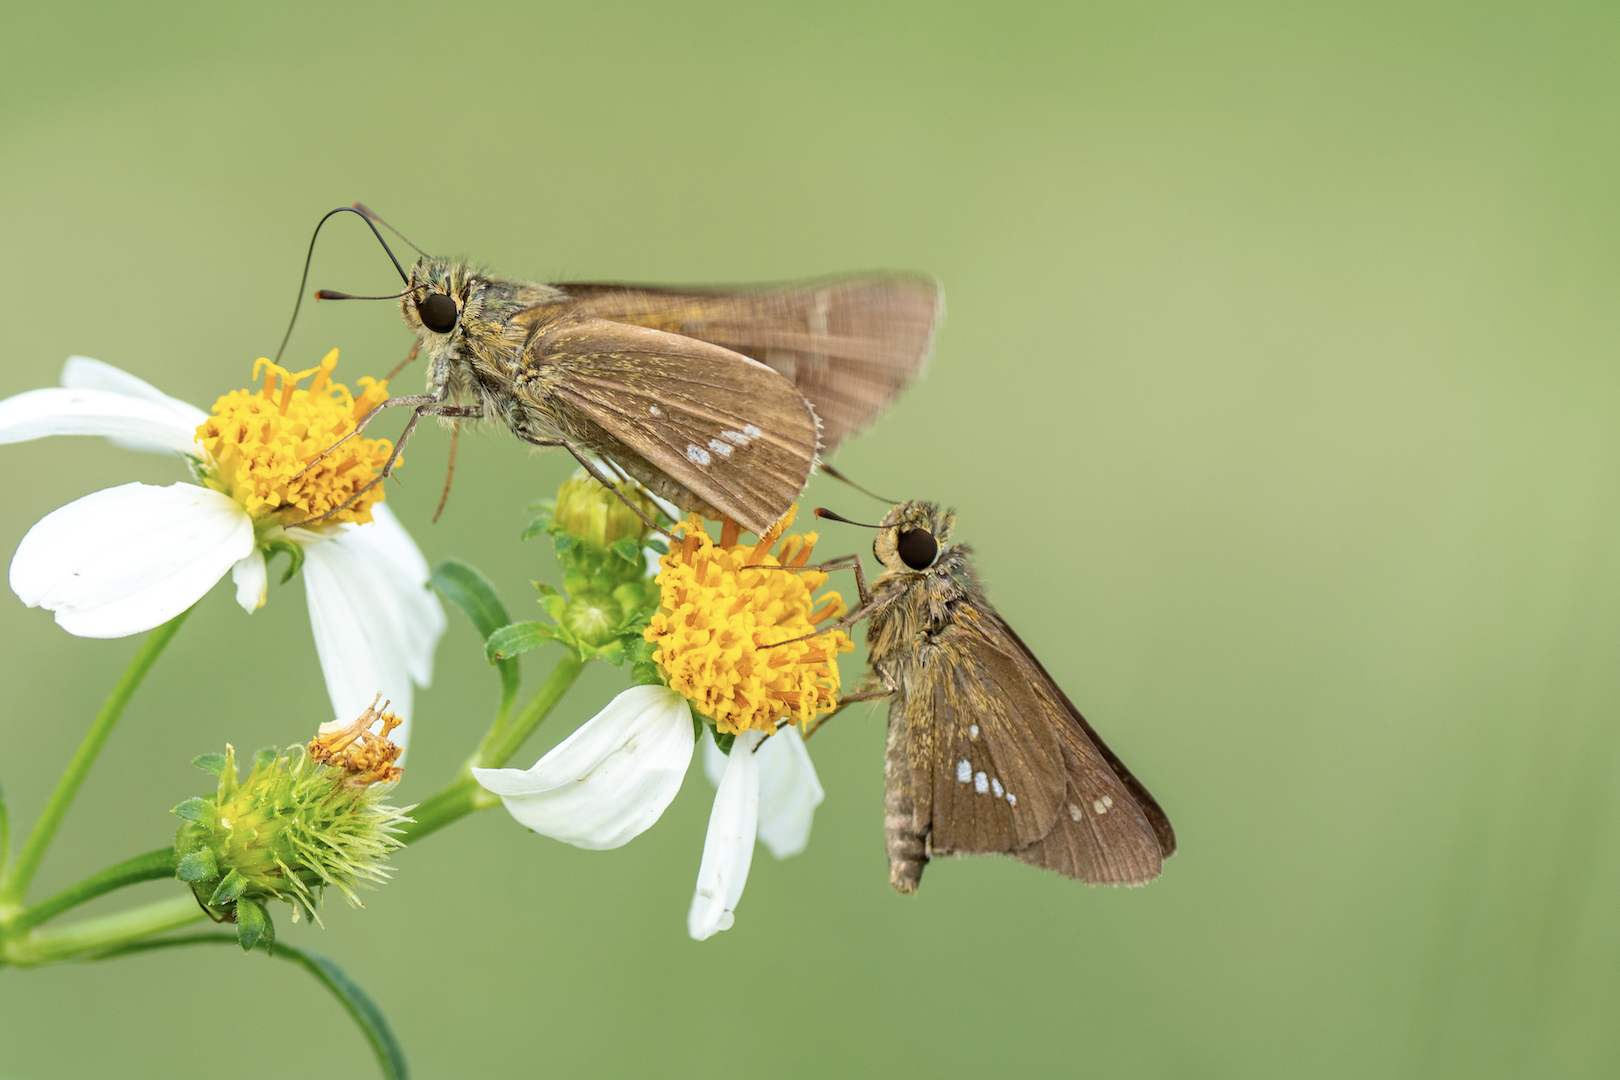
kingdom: Animalia
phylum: Arthropoda
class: Insecta
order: Lepidoptera
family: Hesperiidae
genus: Parnara
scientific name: Parnara guttatus
